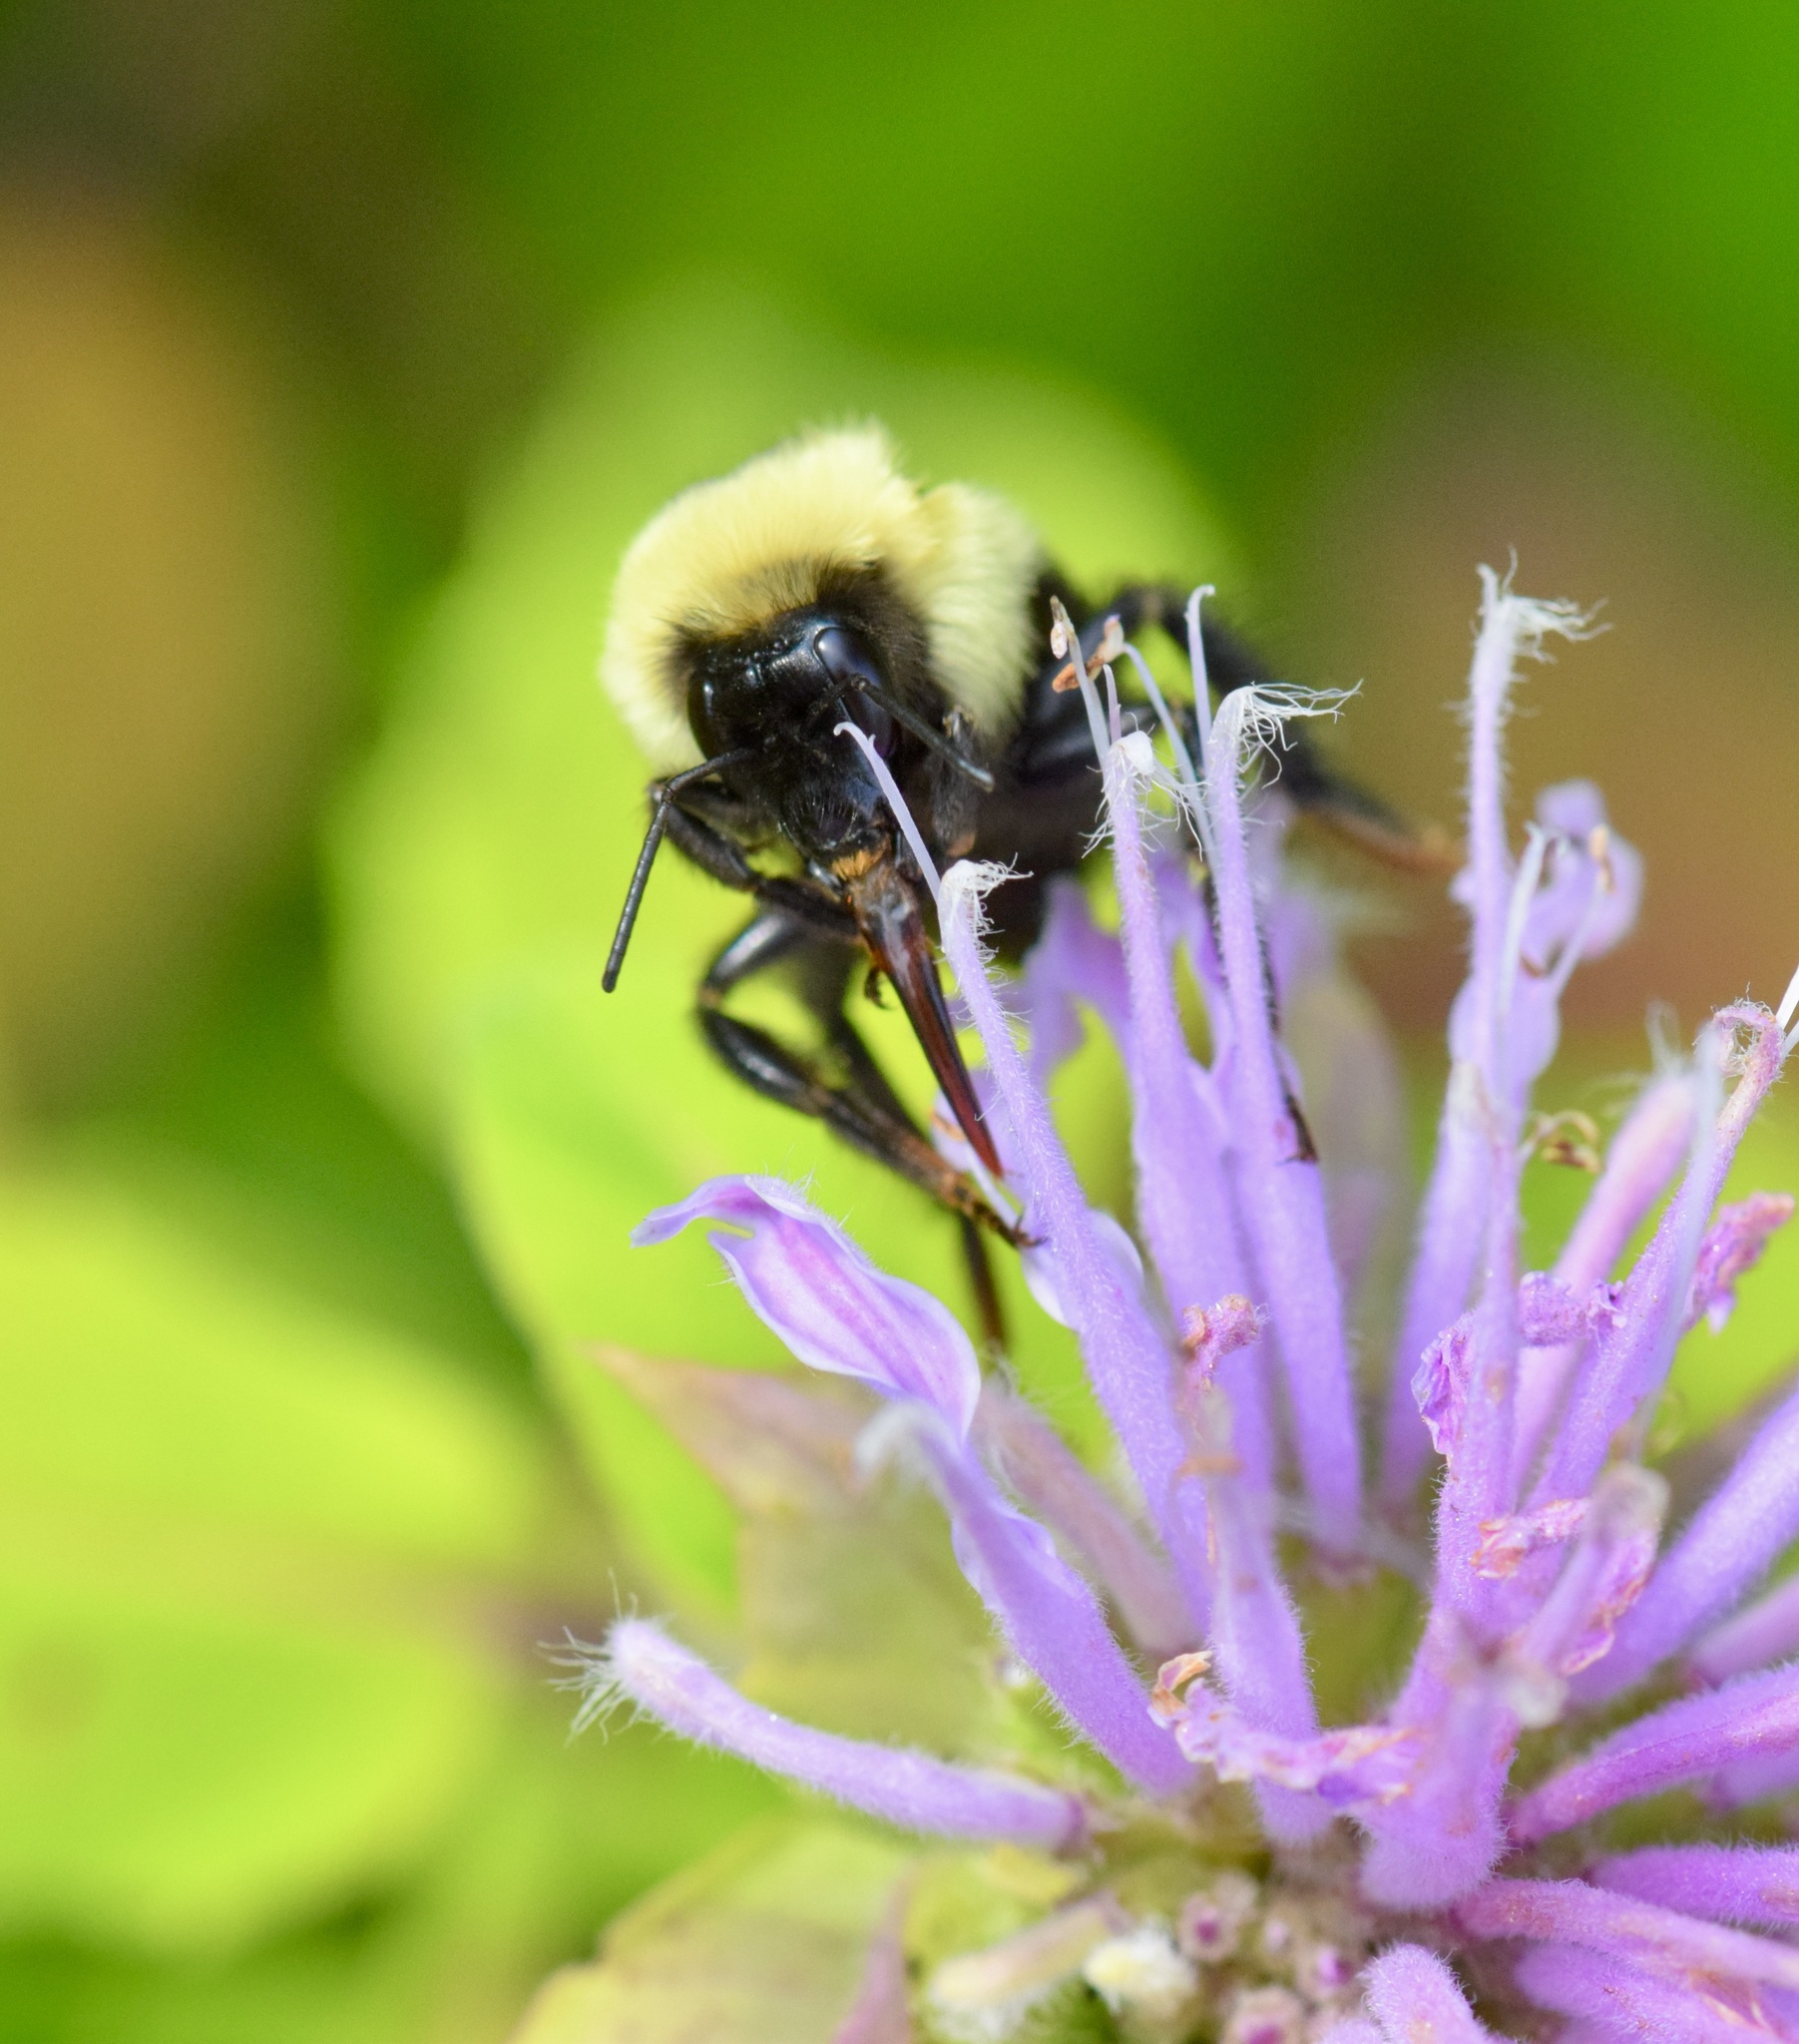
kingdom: Animalia
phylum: Arthropoda
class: Insecta
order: Hymenoptera
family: Apidae
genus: Bombus
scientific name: Bombus bimaculatus
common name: Two-spotted bumble bee
